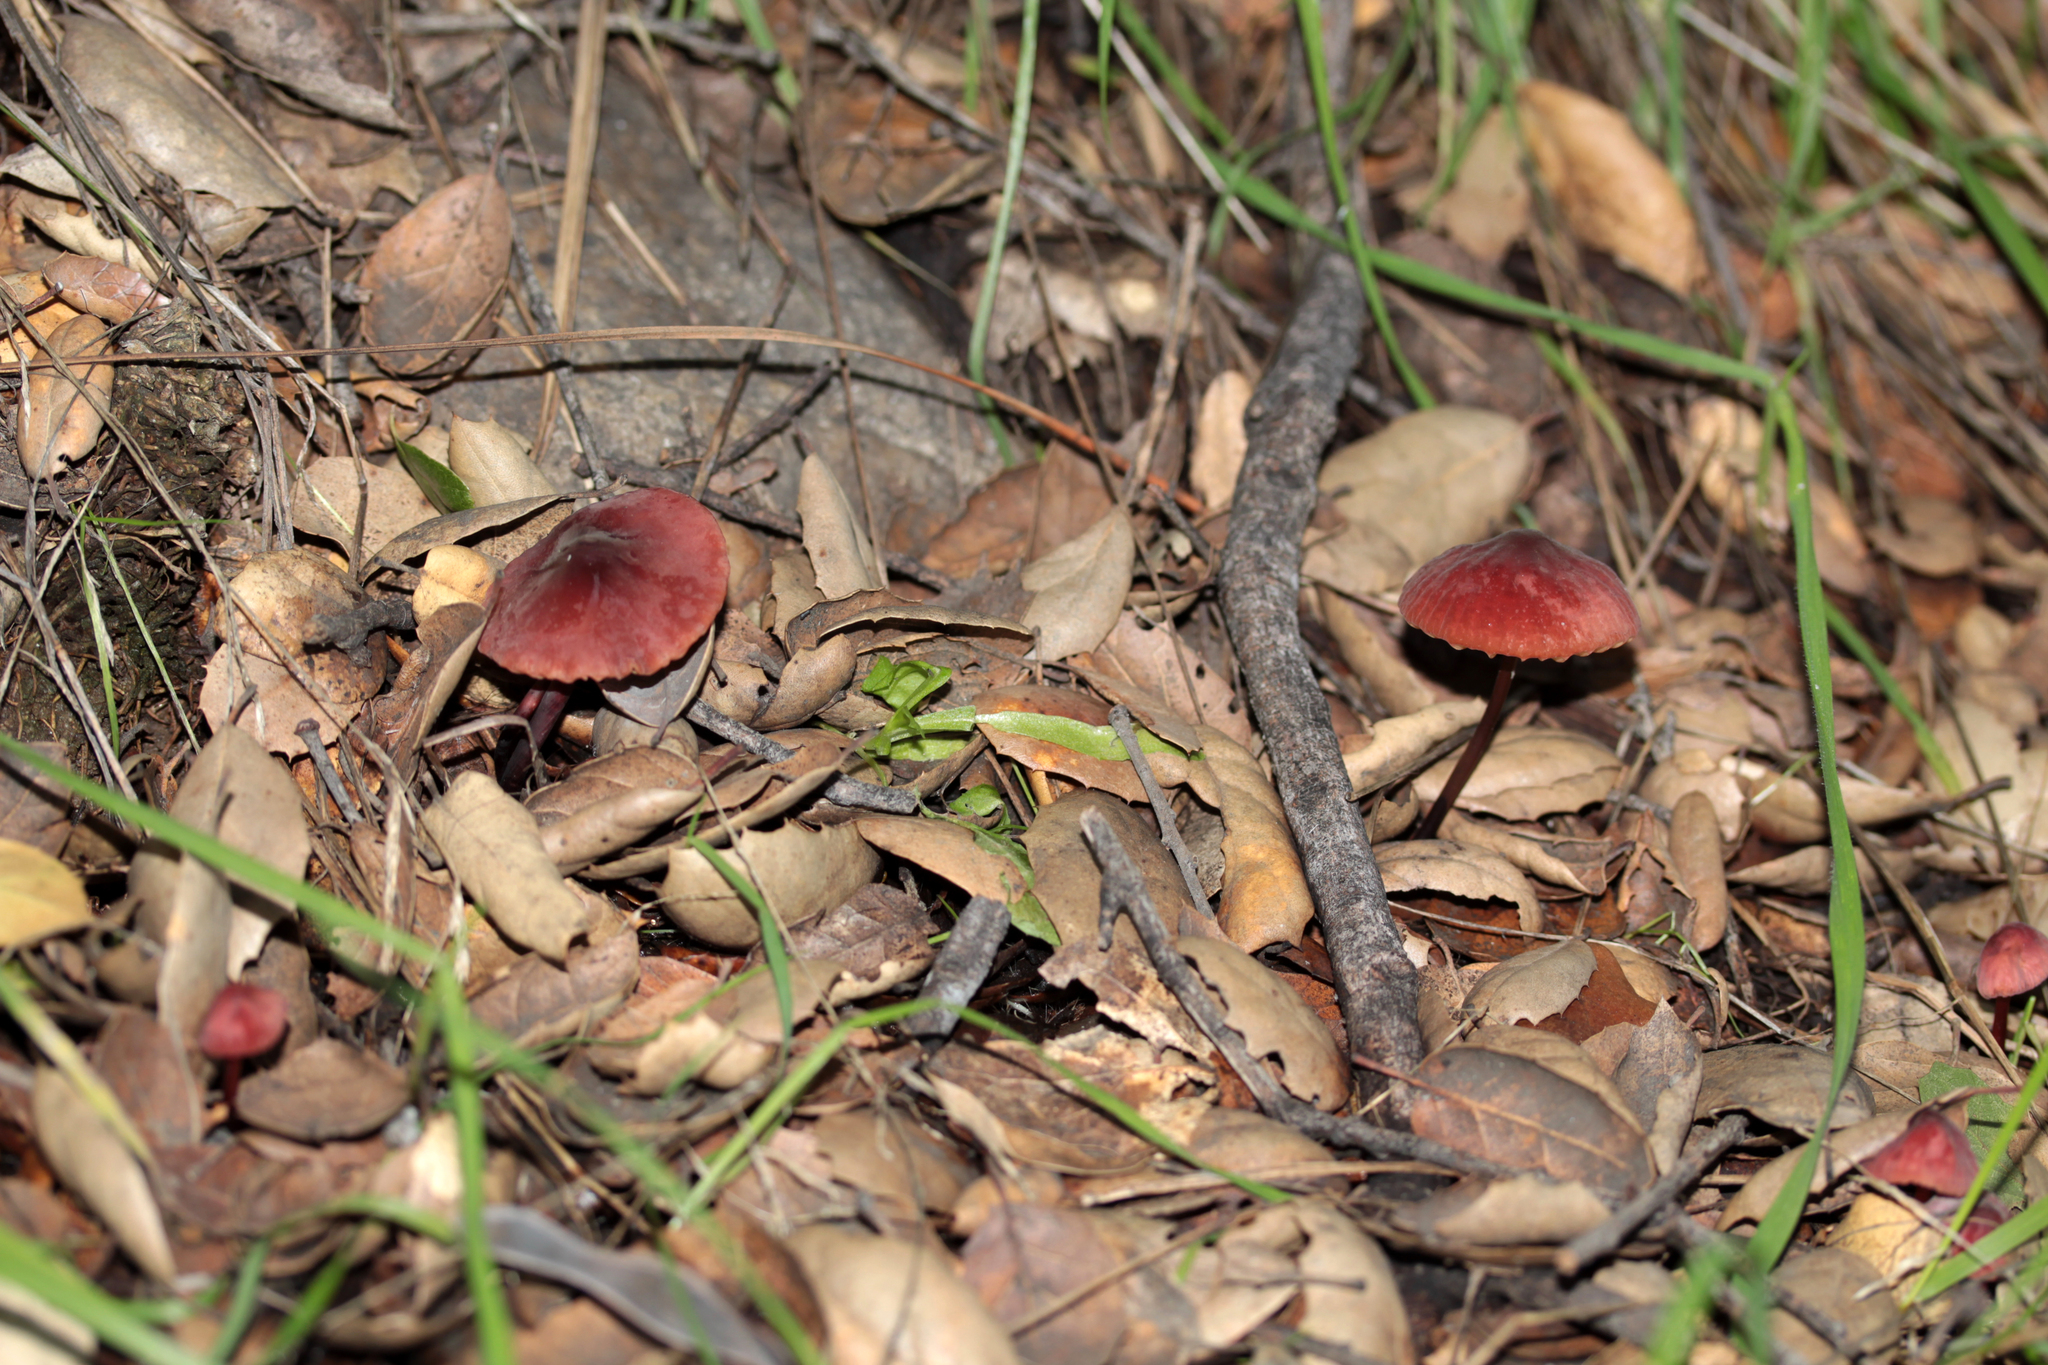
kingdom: Fungi
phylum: Basidiomycota
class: Agaricomycetes
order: Agaricales
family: Marasmiaceae
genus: Marasmius
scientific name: Marasmius plicatulus
